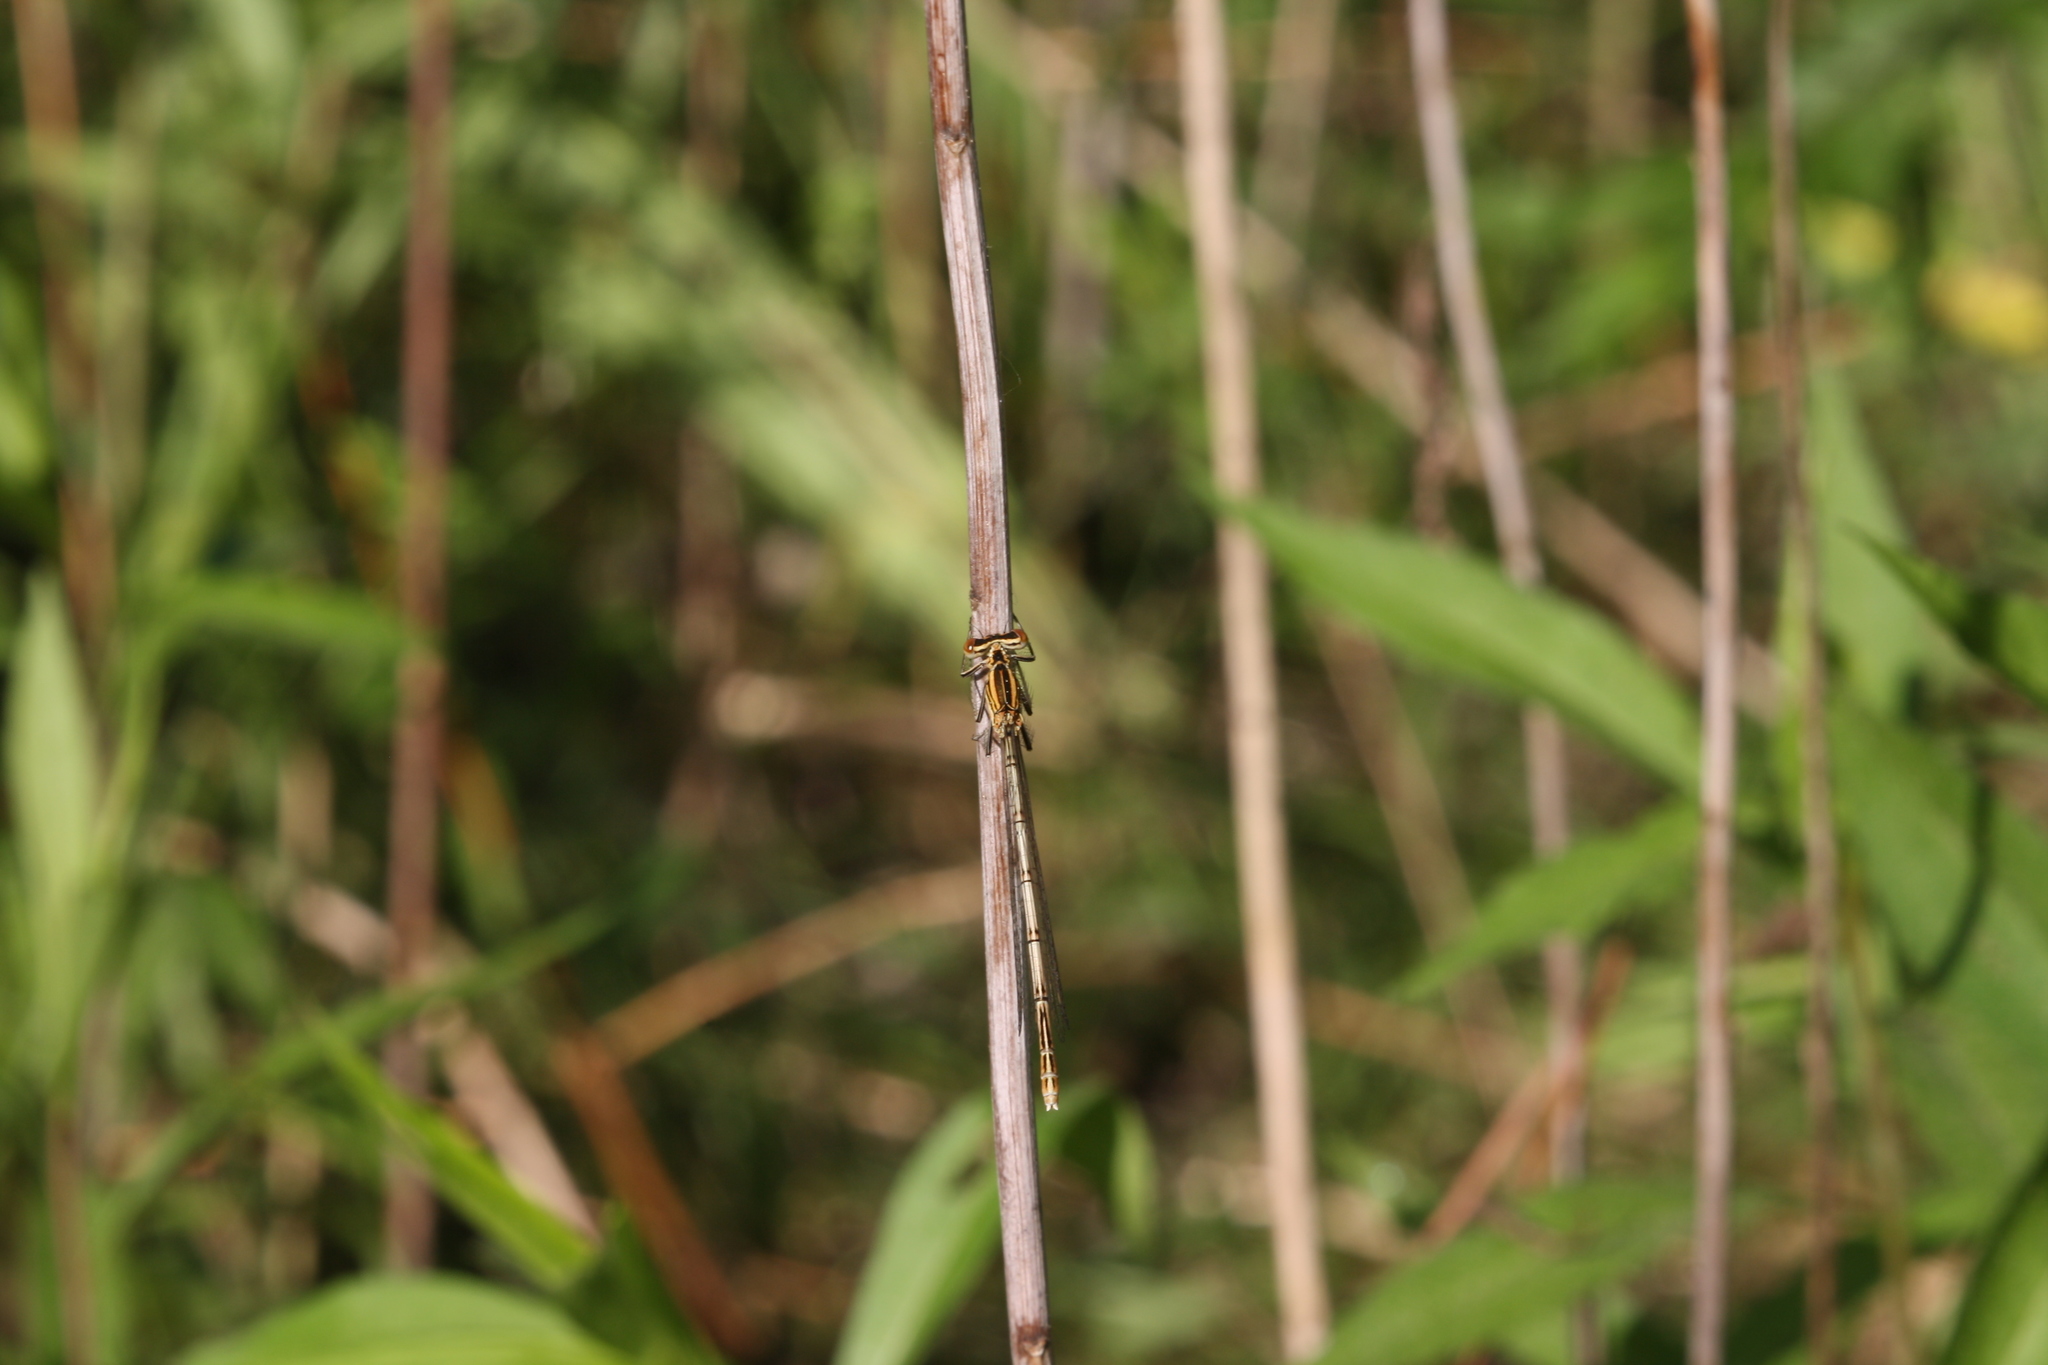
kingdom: Animalia
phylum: Arthropoda
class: Insecta
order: Odonata
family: Platycnemididae
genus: Platycnemis
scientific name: Platycnemis pennipes
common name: White-legged damselfly
